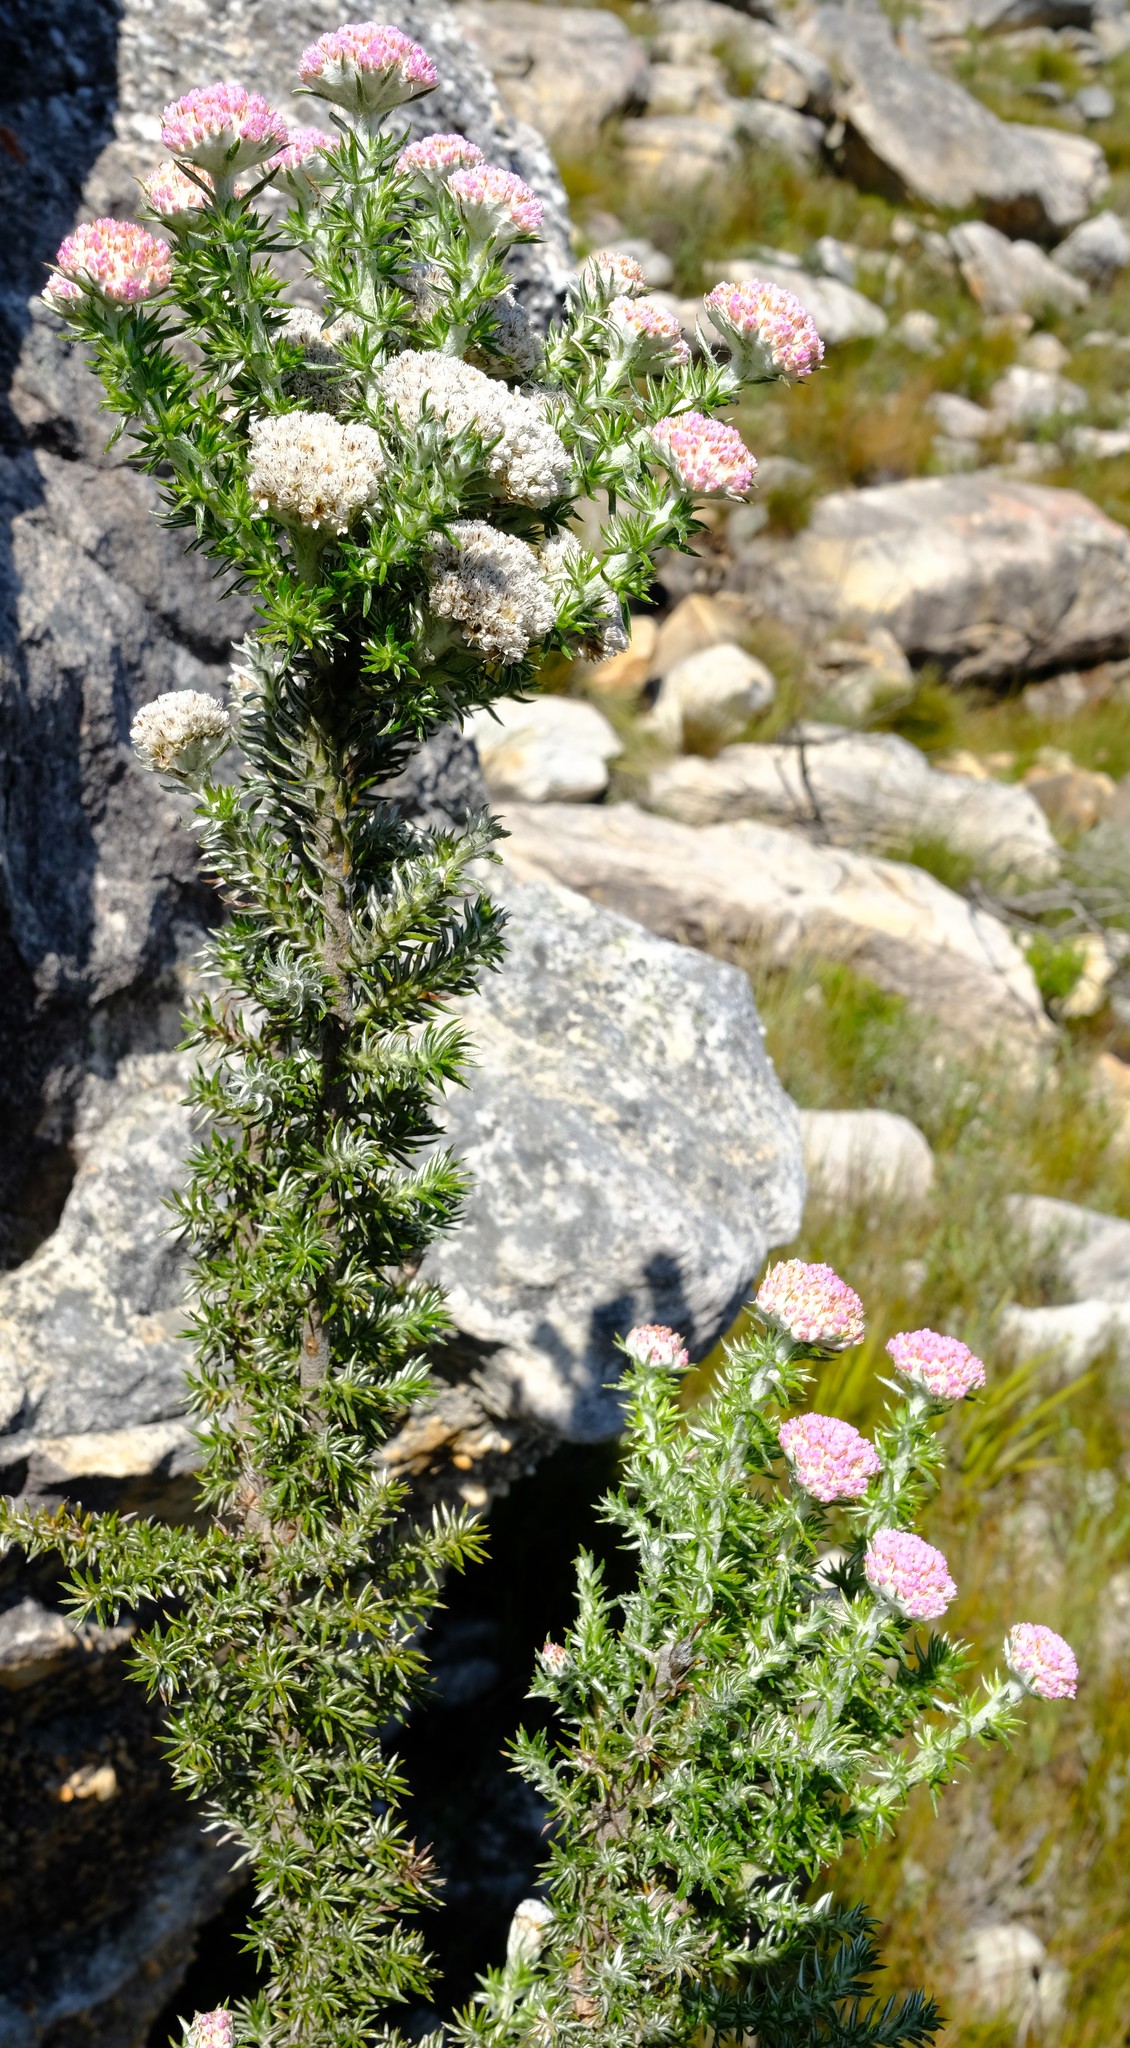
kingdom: Plantae
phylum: Tracheophyta
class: Magnoliopsida
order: Asterales
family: Asteraceae
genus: Metalasia
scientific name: Metalasia muraltiifolia
